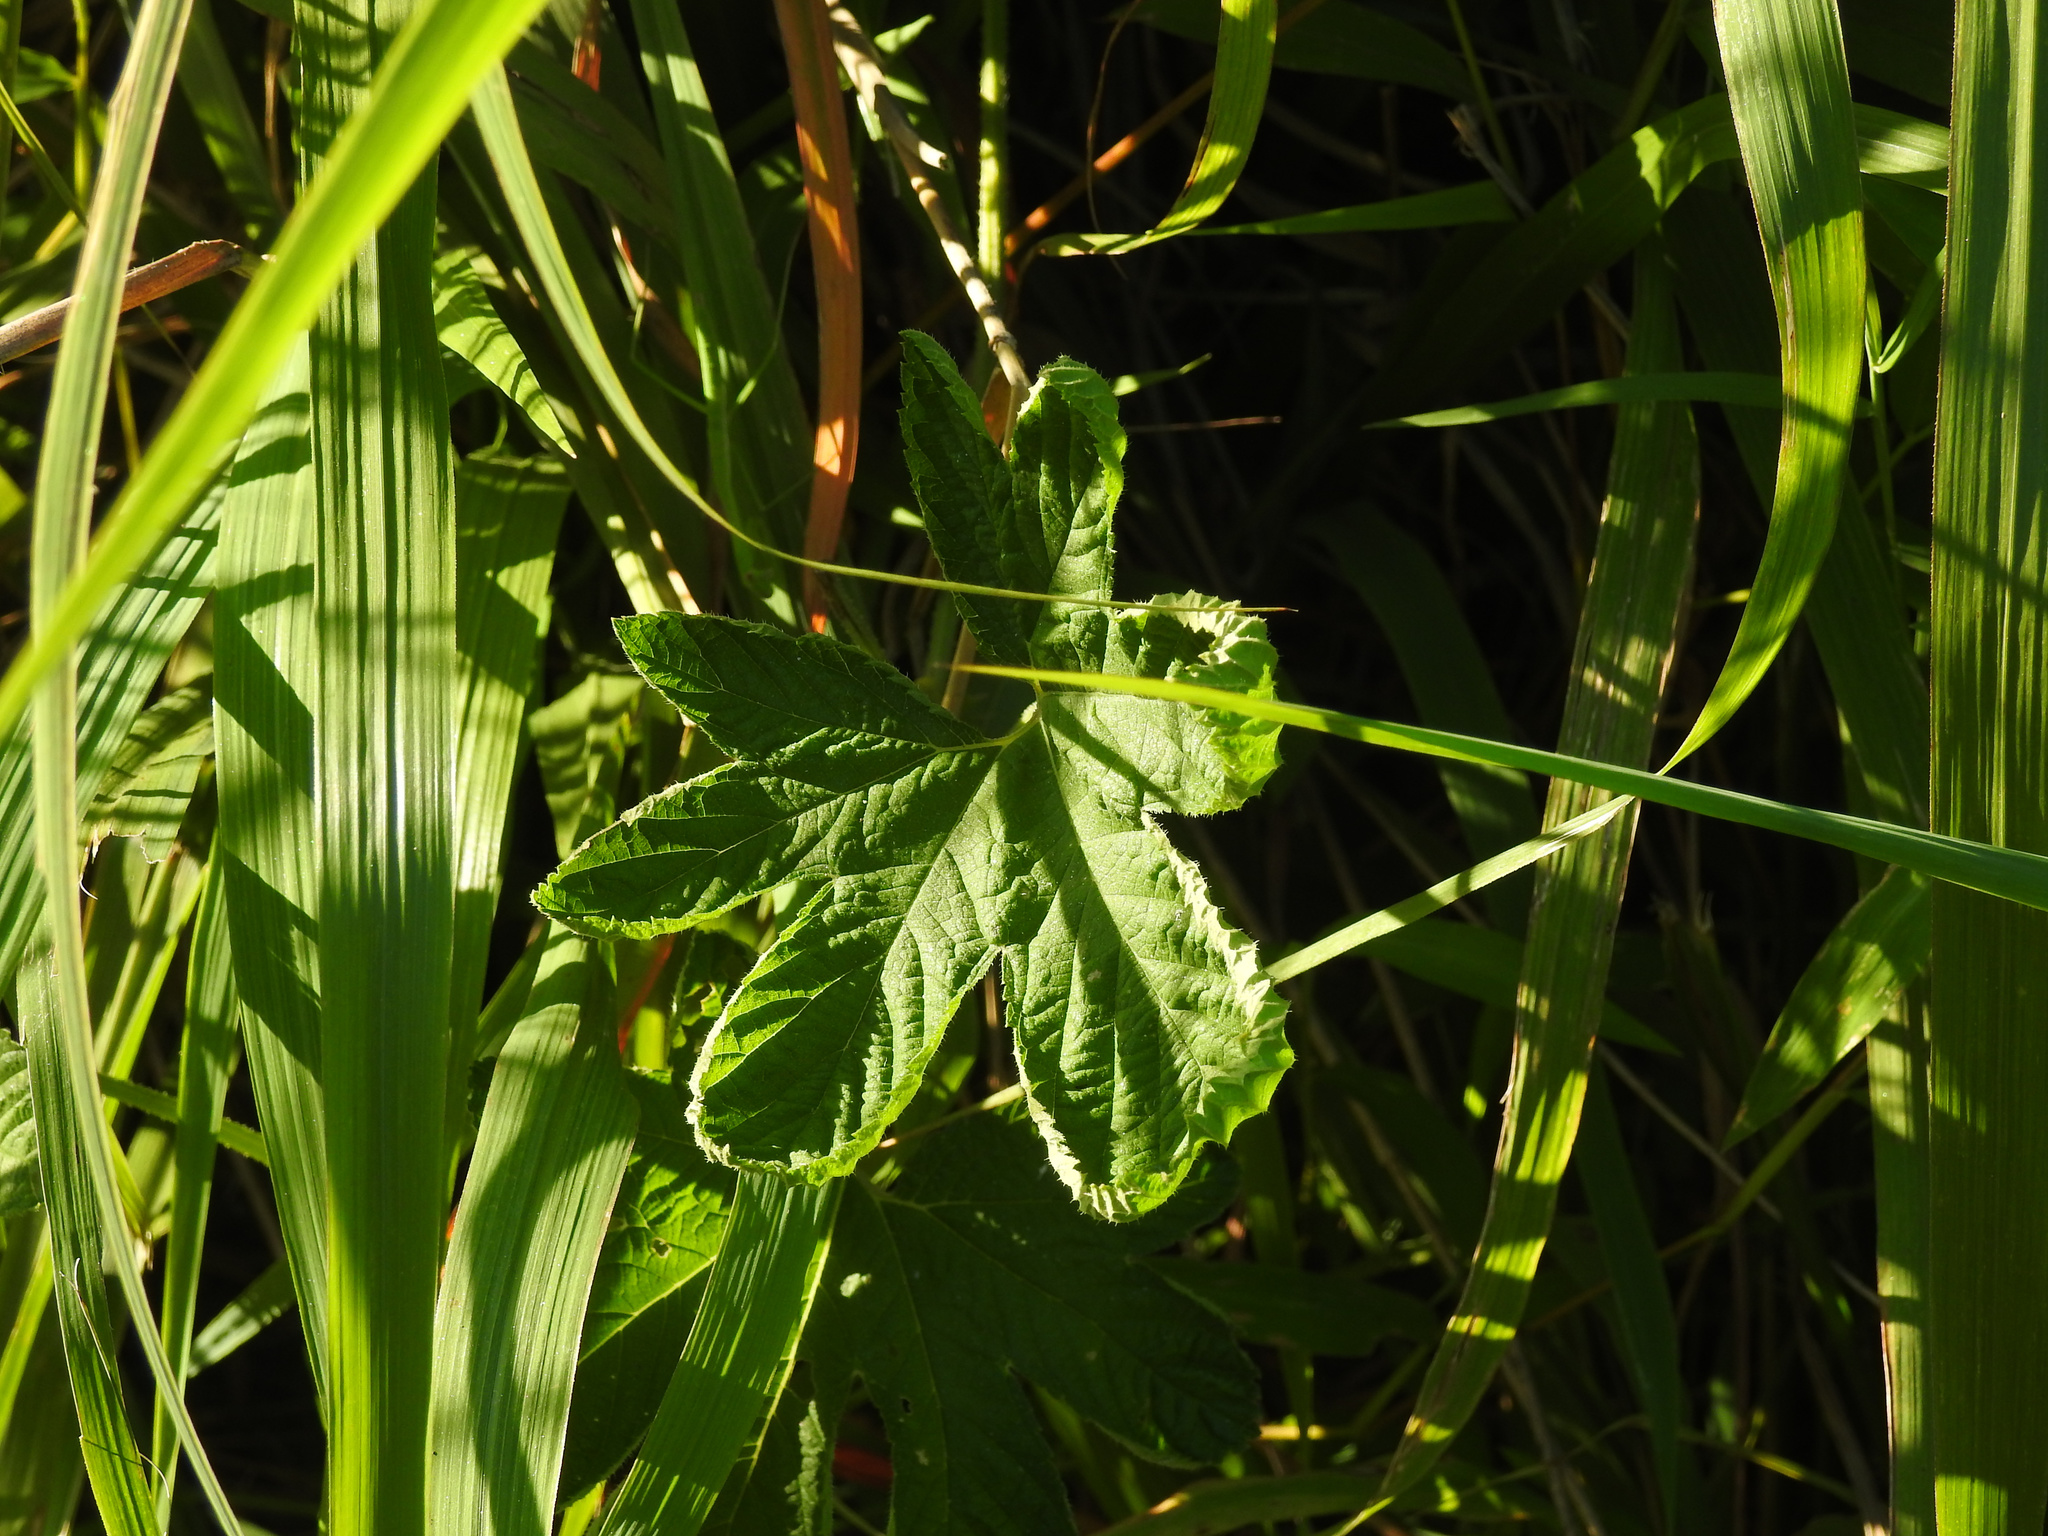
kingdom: Plantae
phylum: Tracheophyta
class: Magnoliopsida
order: Rosales
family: Cannabaceae
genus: Humulus
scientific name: Humulus scandens
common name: Japanese hop
